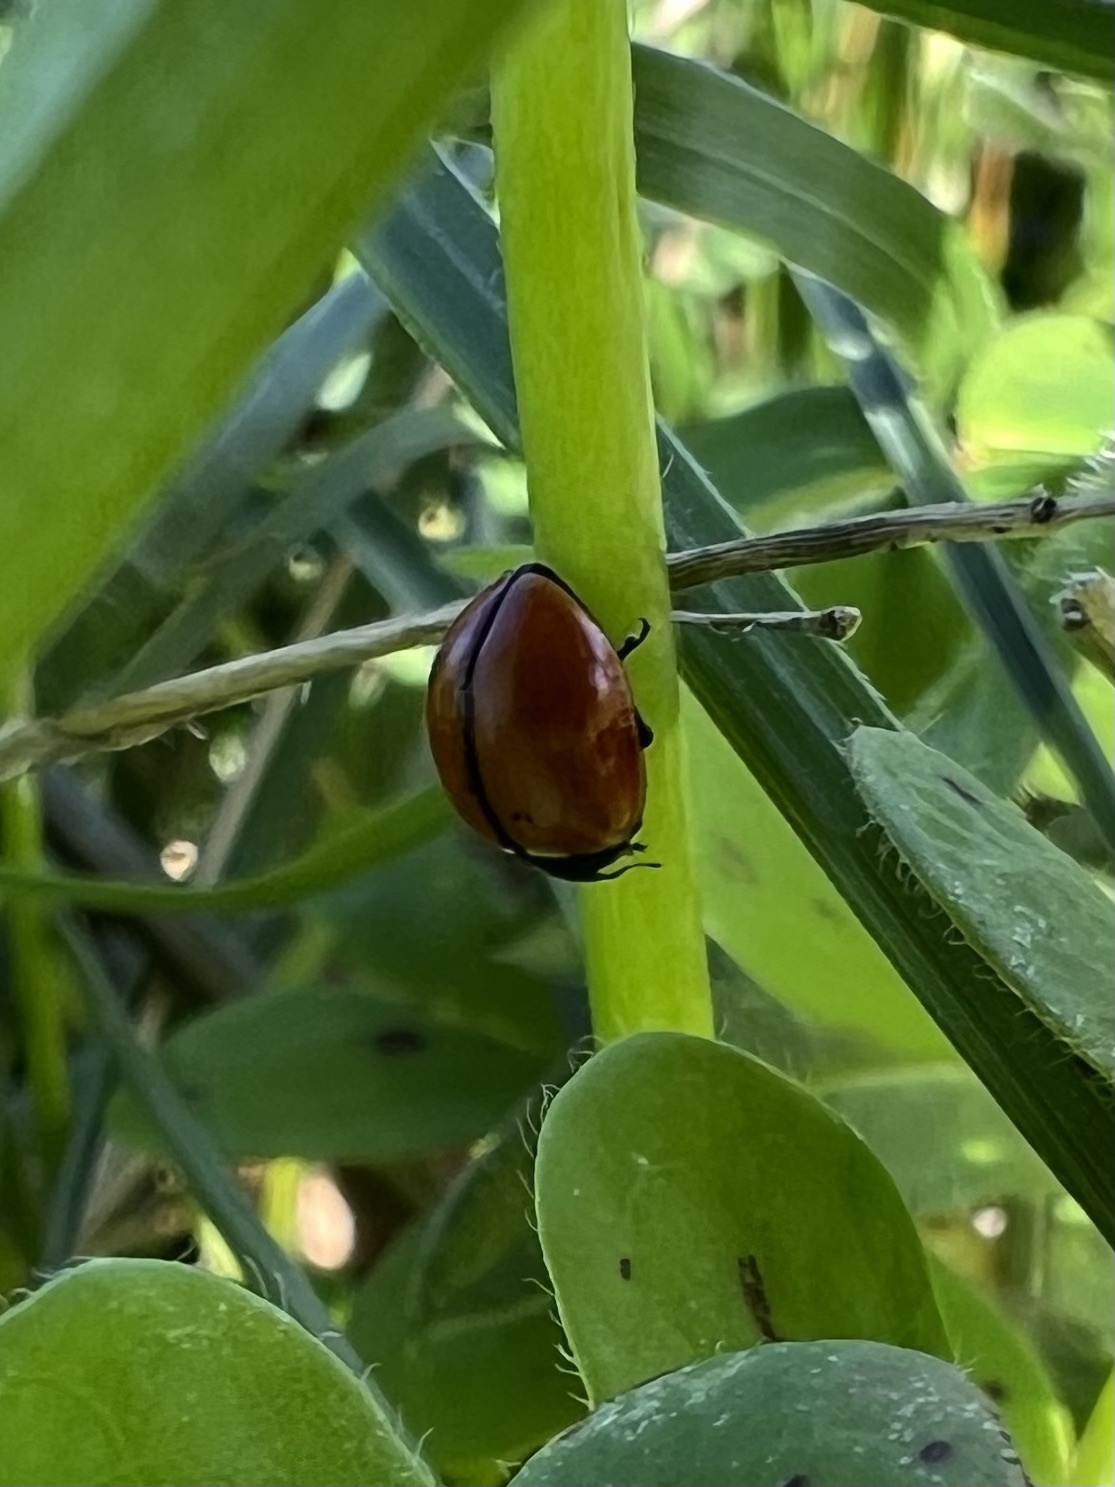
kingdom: Animalia
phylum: Arthropoda
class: Insecta
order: Coleoptera
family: Coccinellidae
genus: Coccinella
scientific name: Coccinella californica
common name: Lady beetle
